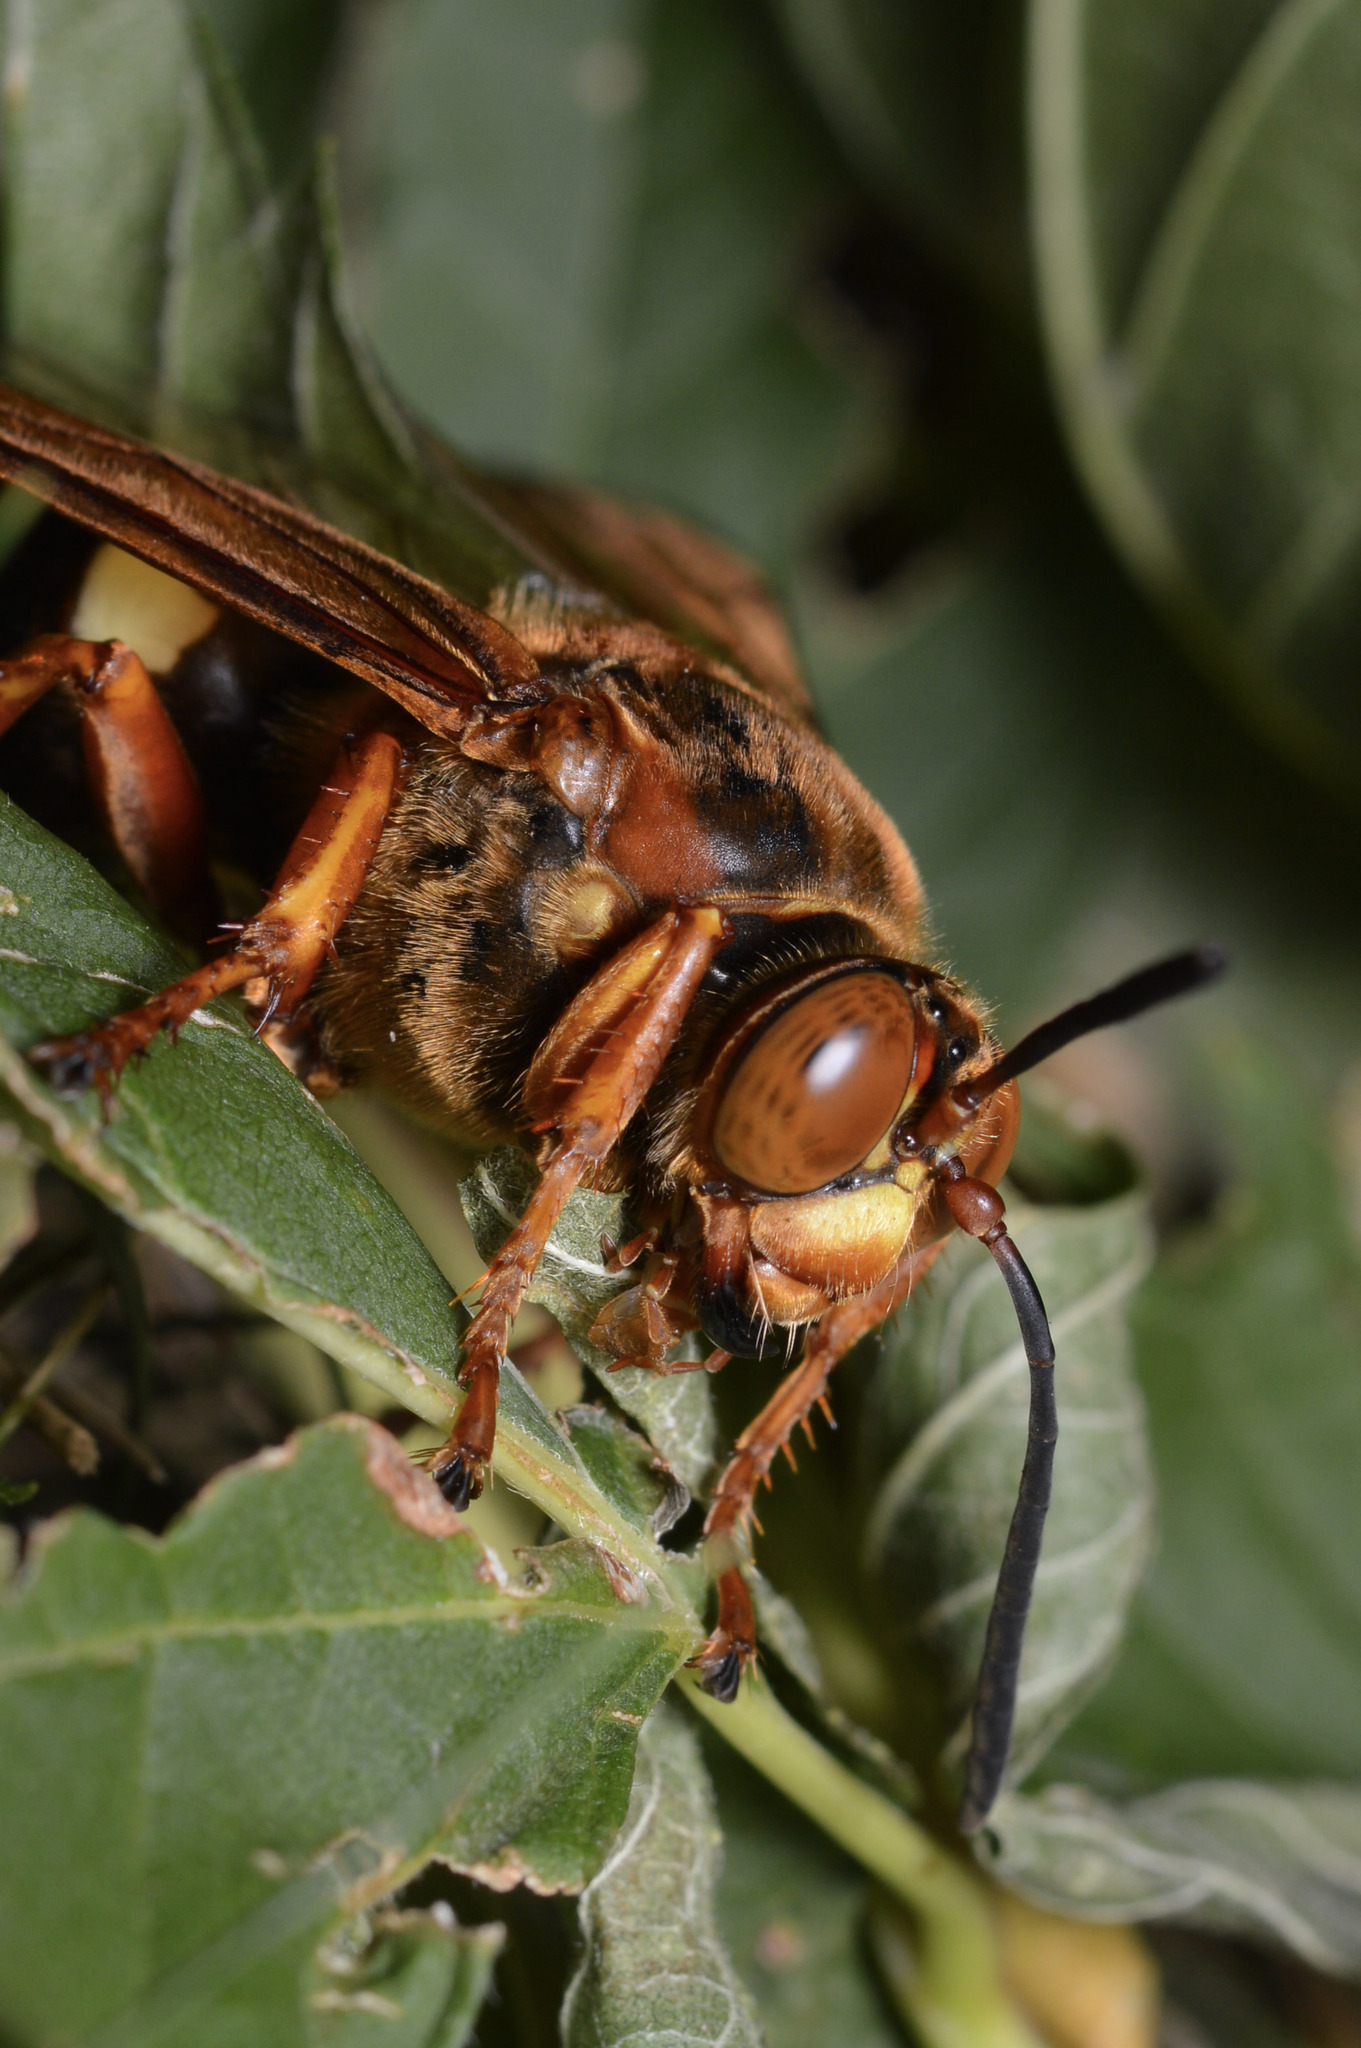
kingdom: Animalia
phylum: Arthropoda
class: Insecta
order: Hymenoptera
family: Crabronidae
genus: Sphecius
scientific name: Sphecius speciosus
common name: Cicada killer
